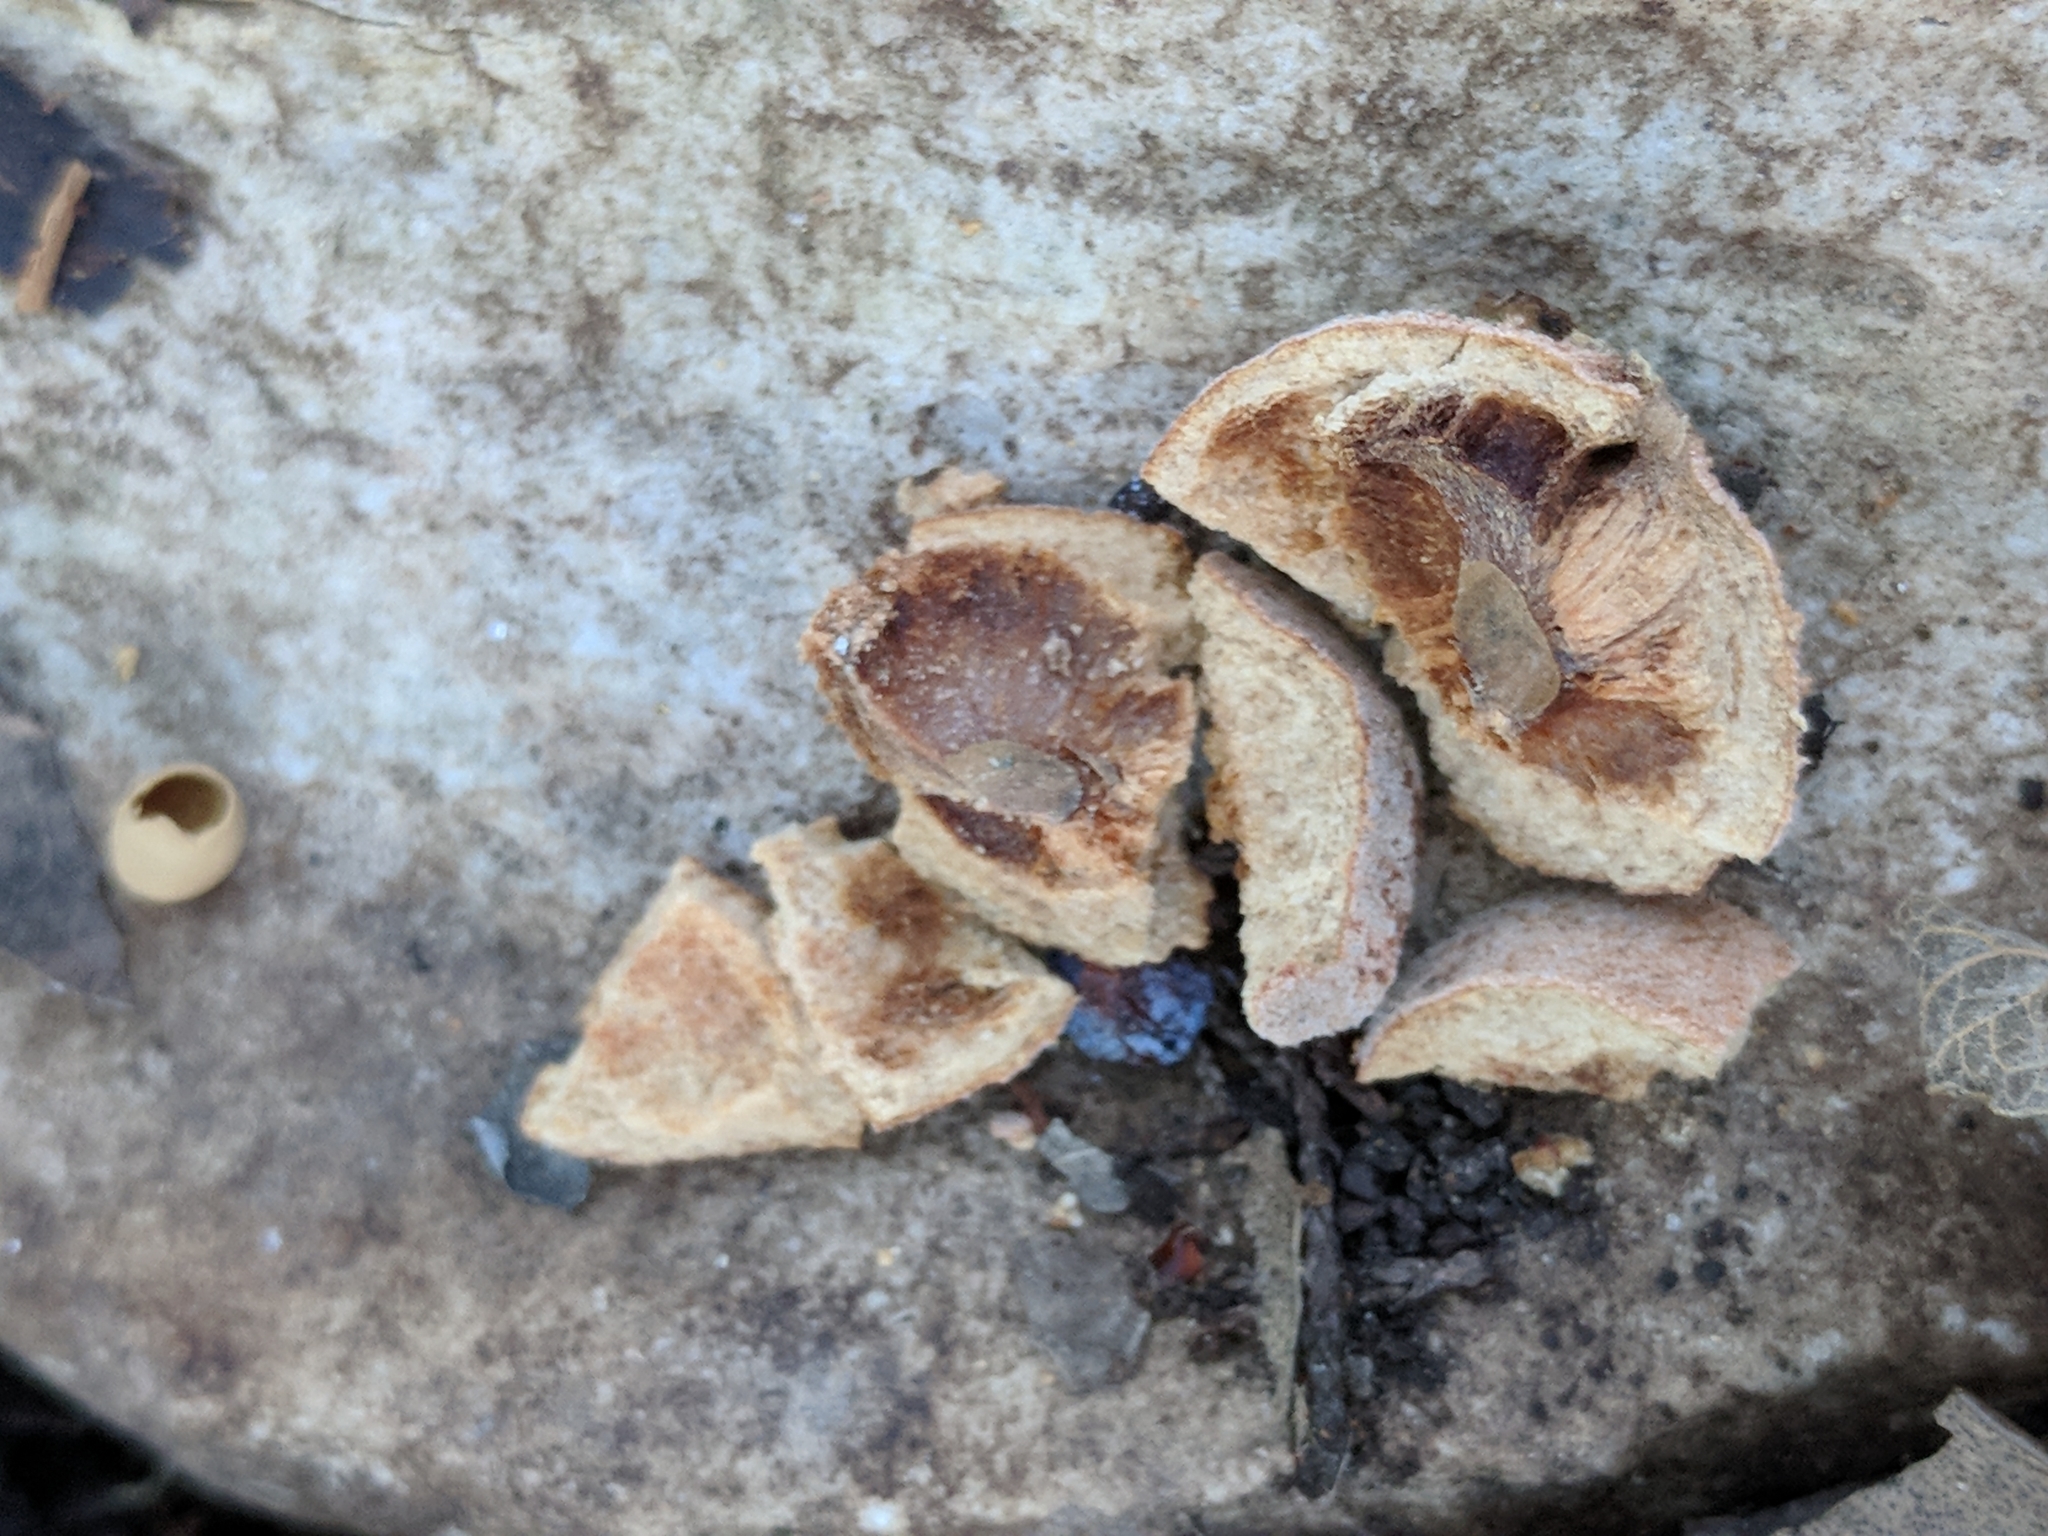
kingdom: Animalia
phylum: Arthropoda
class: Insecta
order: Hymenoptera
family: Cynipidae
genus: Disholcaspis
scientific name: Disholcaspis
